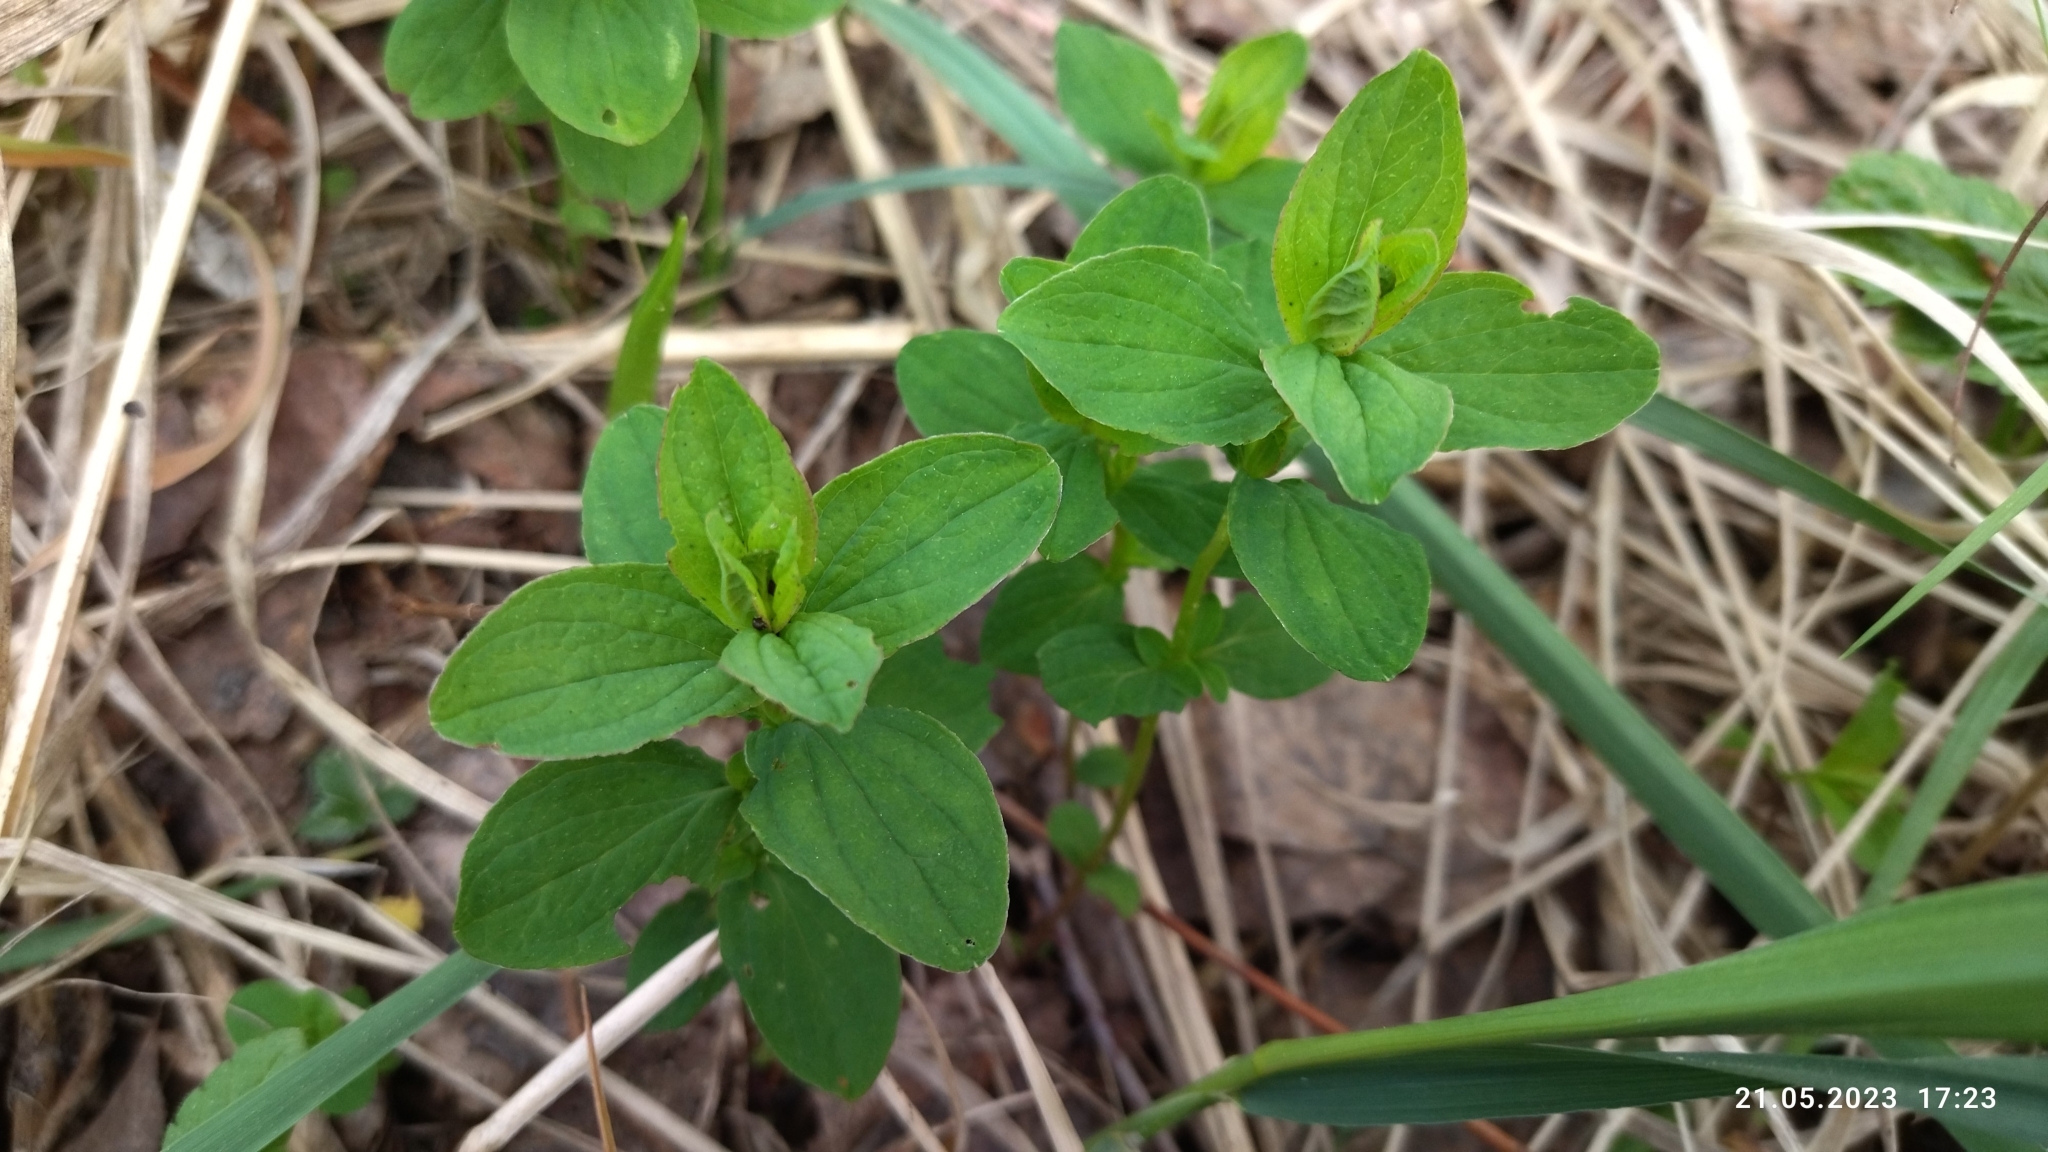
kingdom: Plantae
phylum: Tracheophyta
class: Magnoliopsida
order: Malpighiales
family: Hypericaceae
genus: Hypericum
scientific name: Hypericum maculatum
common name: Imperforate st. john's-wort
